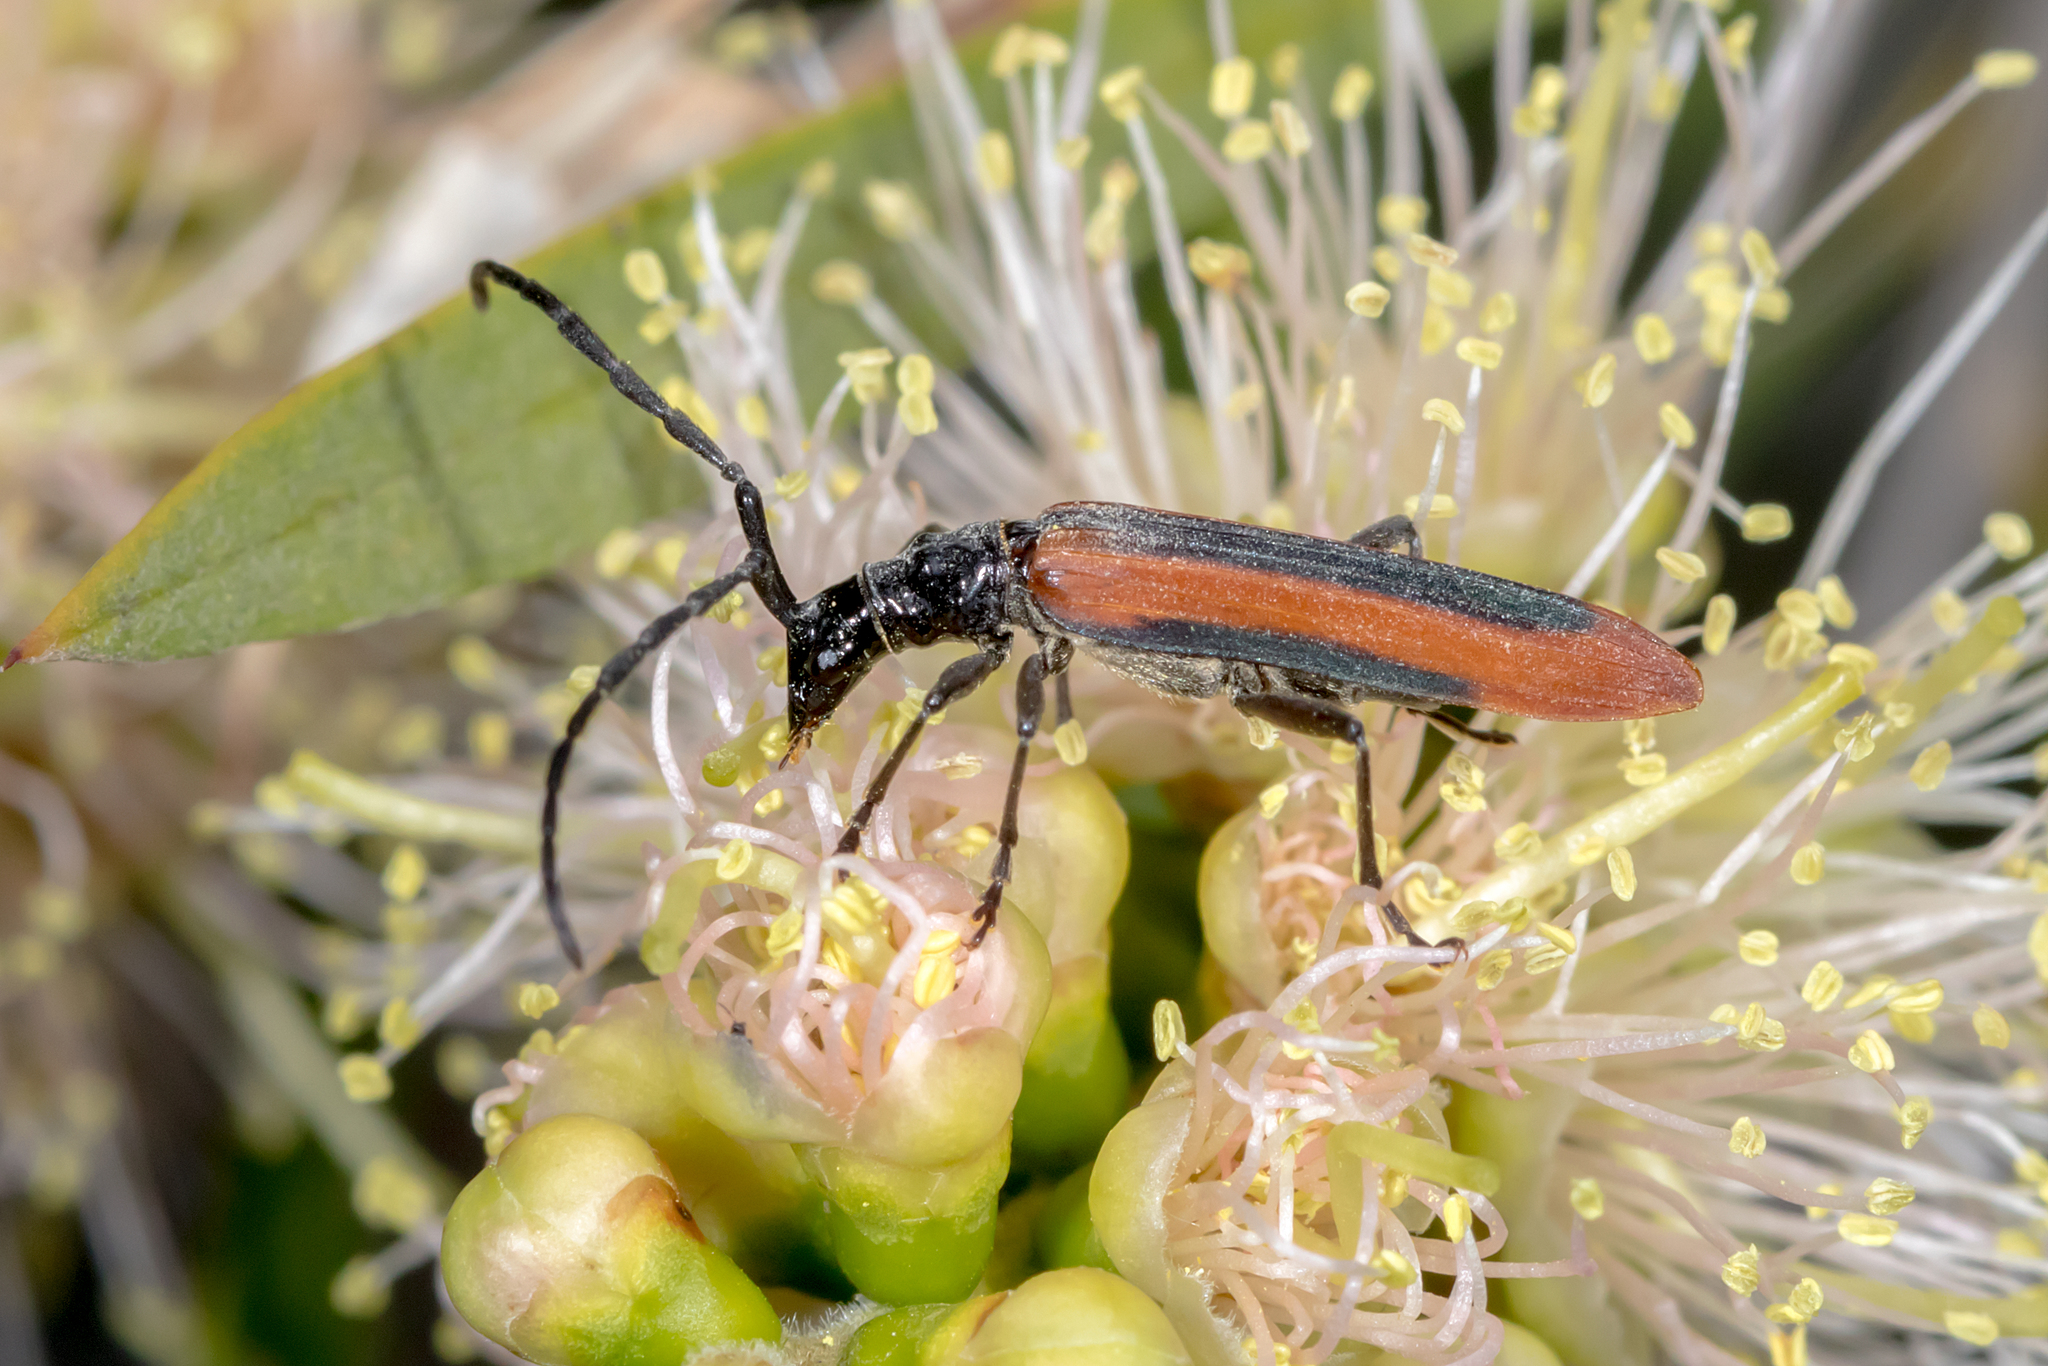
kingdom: Animalia
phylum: Arthropoda
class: Insecta
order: Coleoptera
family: Cerambycidae
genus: Stenoderus
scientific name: Stenoderus suturalis
